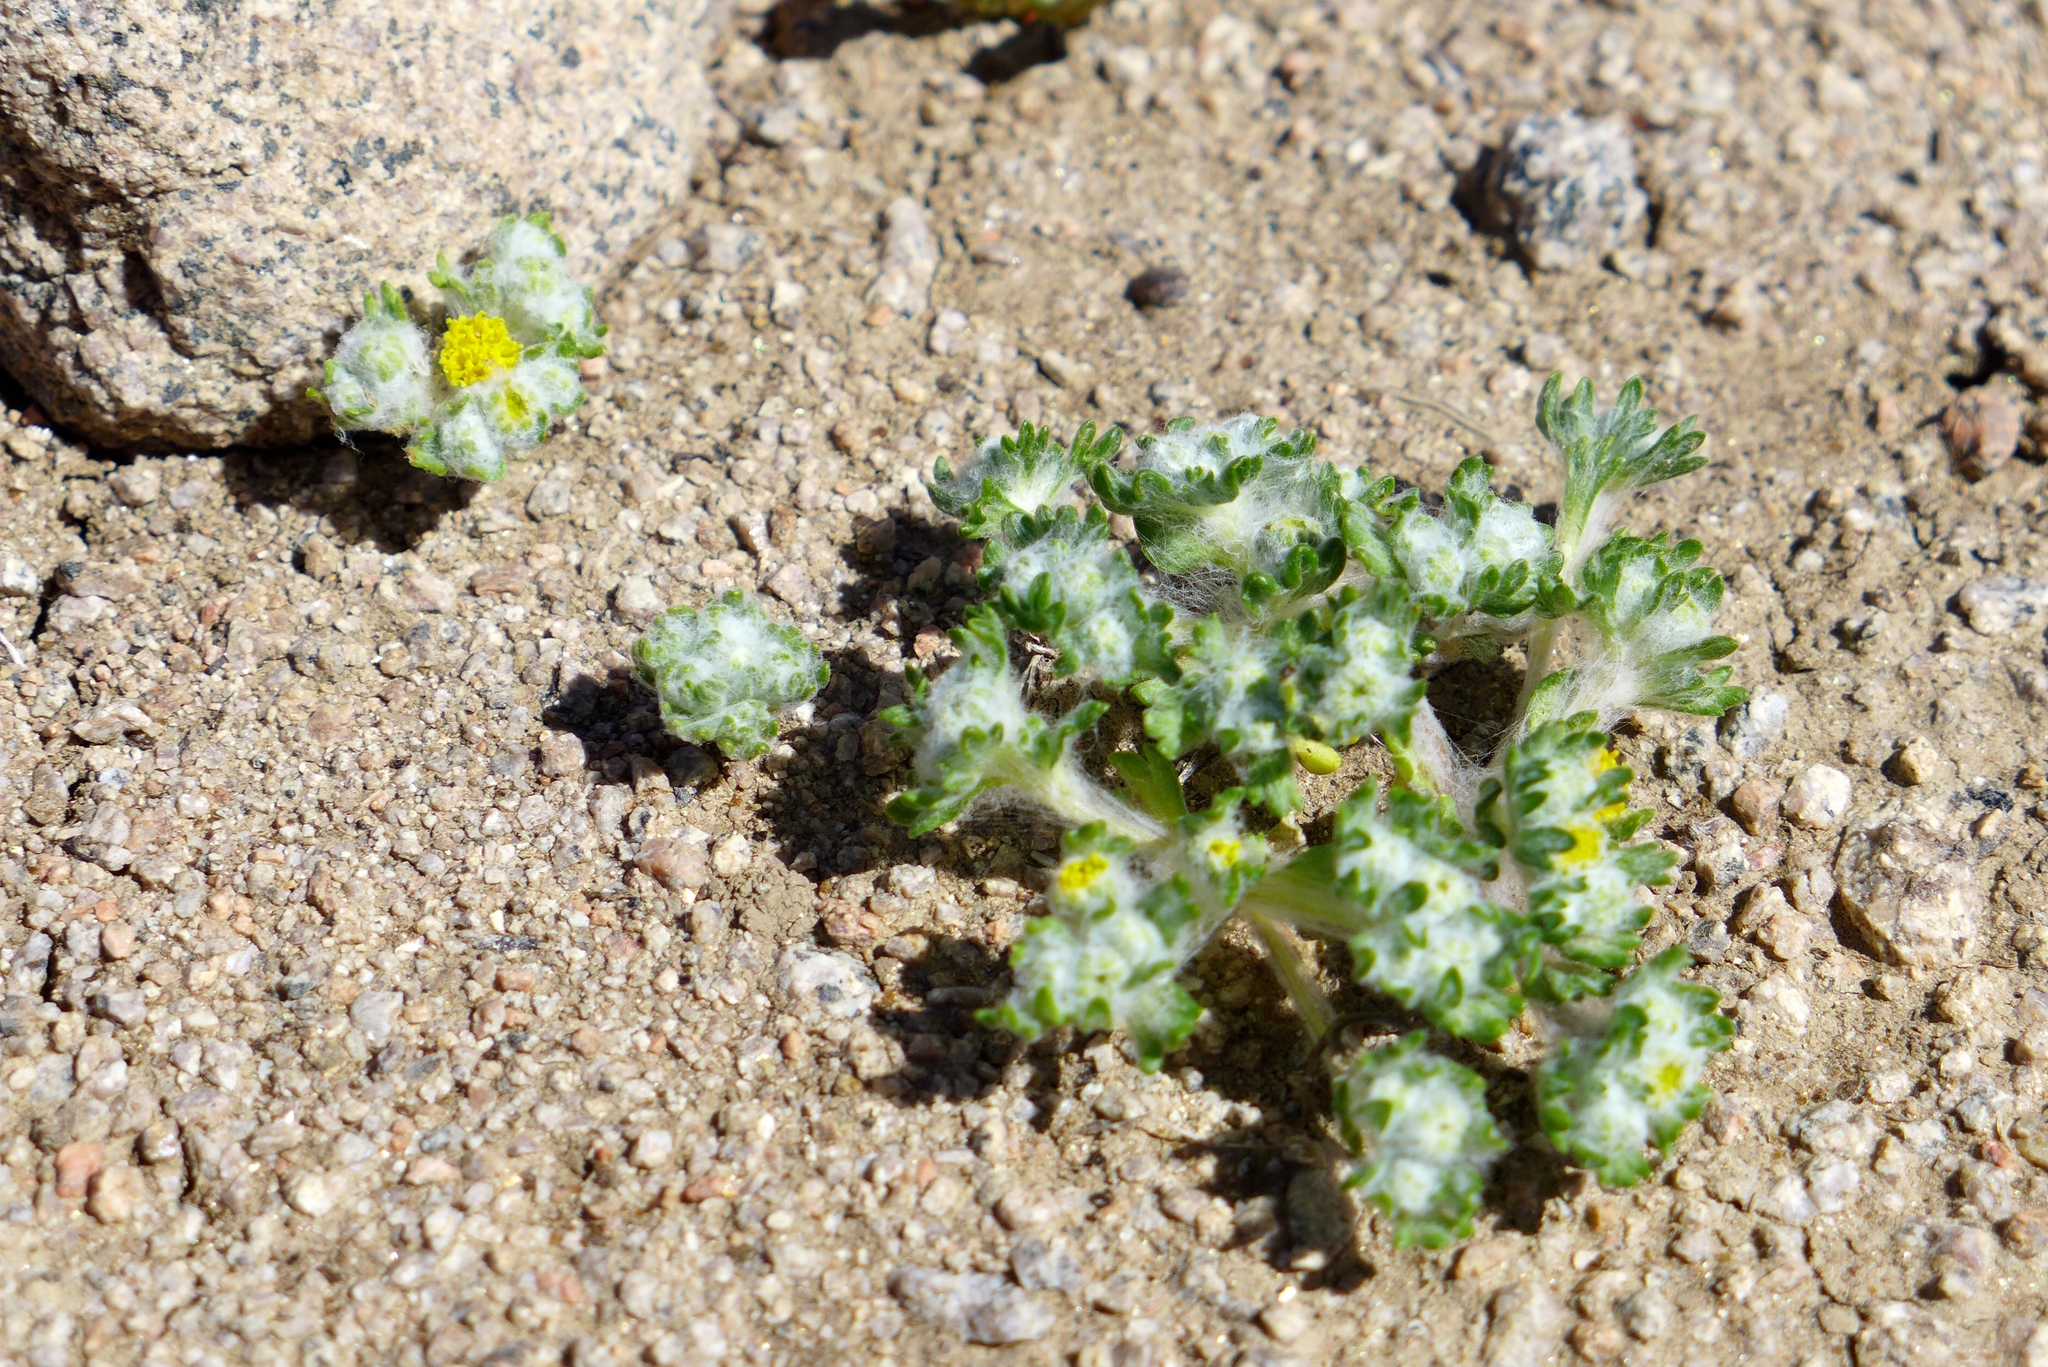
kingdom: Plantae
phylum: Tracheophyta
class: Magnoliopsida
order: Asterales
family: Asteraceae
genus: Eriophyllum
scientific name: Eriophyllum pringlei
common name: Pringle's woolly-sunflower
